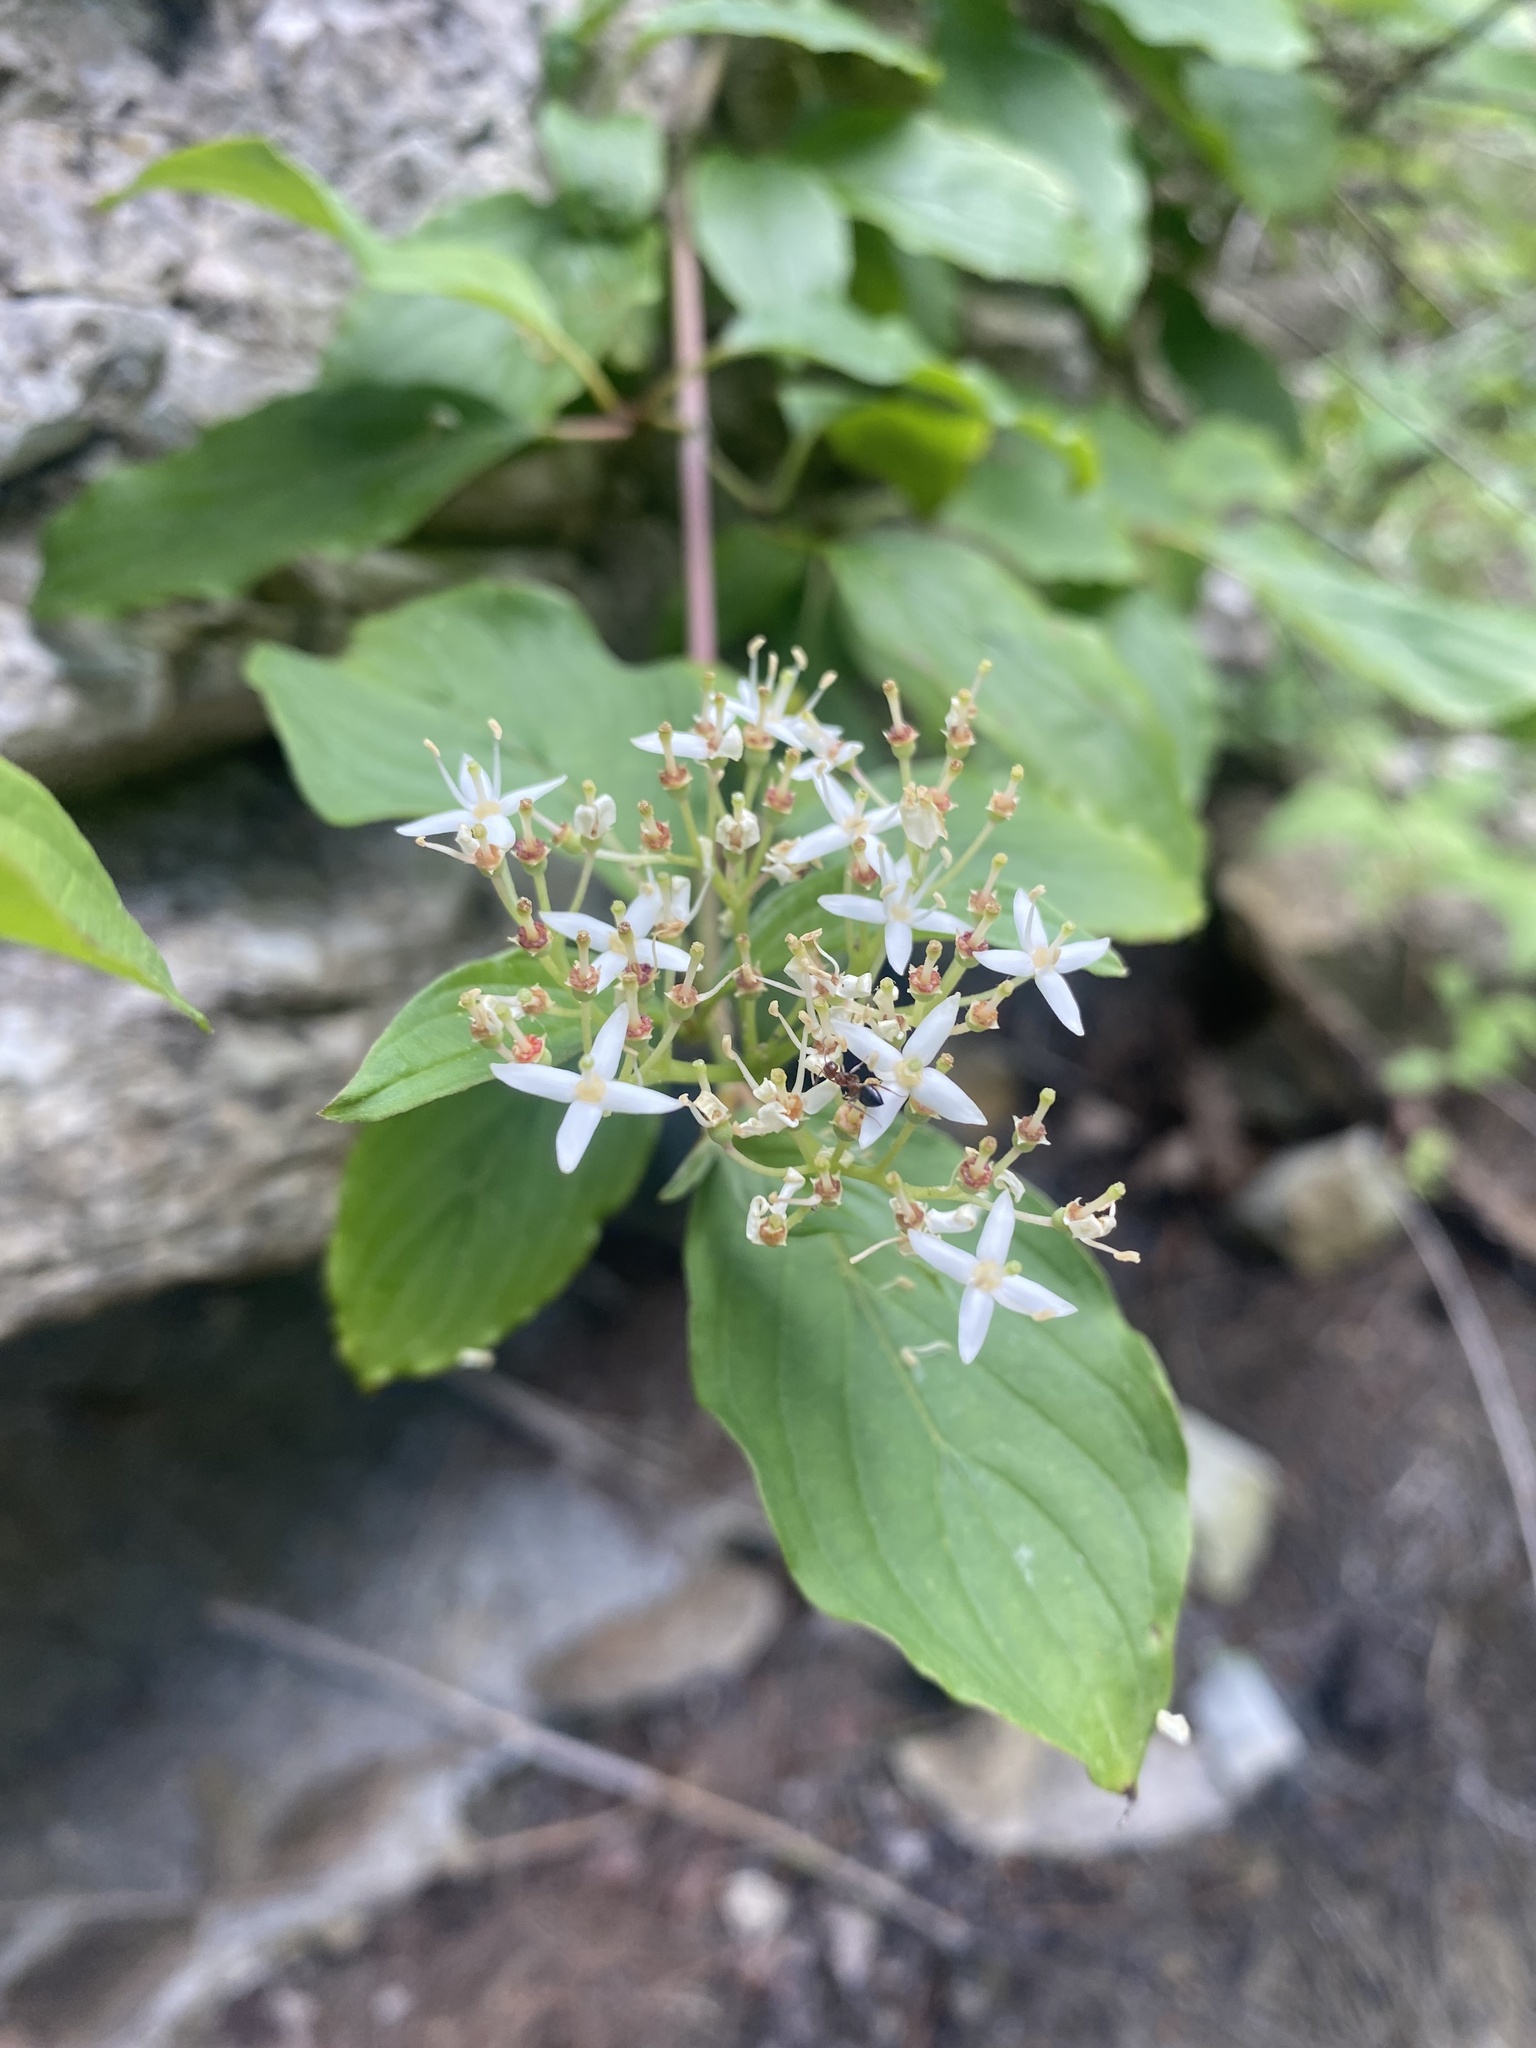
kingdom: Plantae
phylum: Tracheophyta
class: Magnoliopsida
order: Cornales
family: Cornaceae
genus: Cornus
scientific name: Cornus sanguinea
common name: Dogwood
